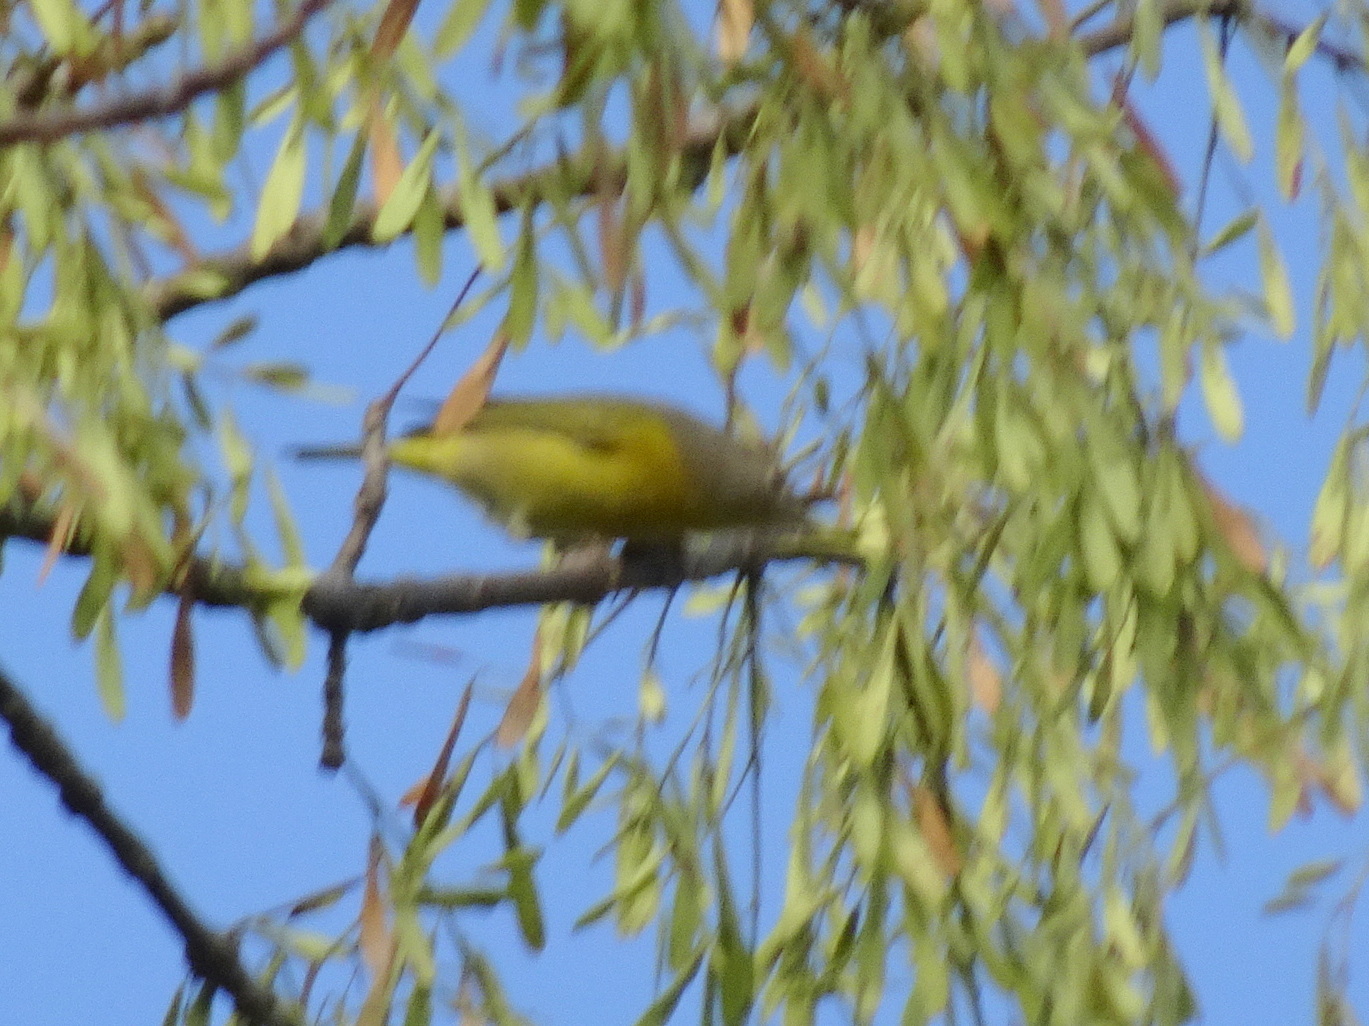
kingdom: Animalia
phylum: Chordata
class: Aves
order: Passeriformes
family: Parulidae
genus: Leiothlypis
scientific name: Leiothlypis ruficapilla
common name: Nashville warbler
